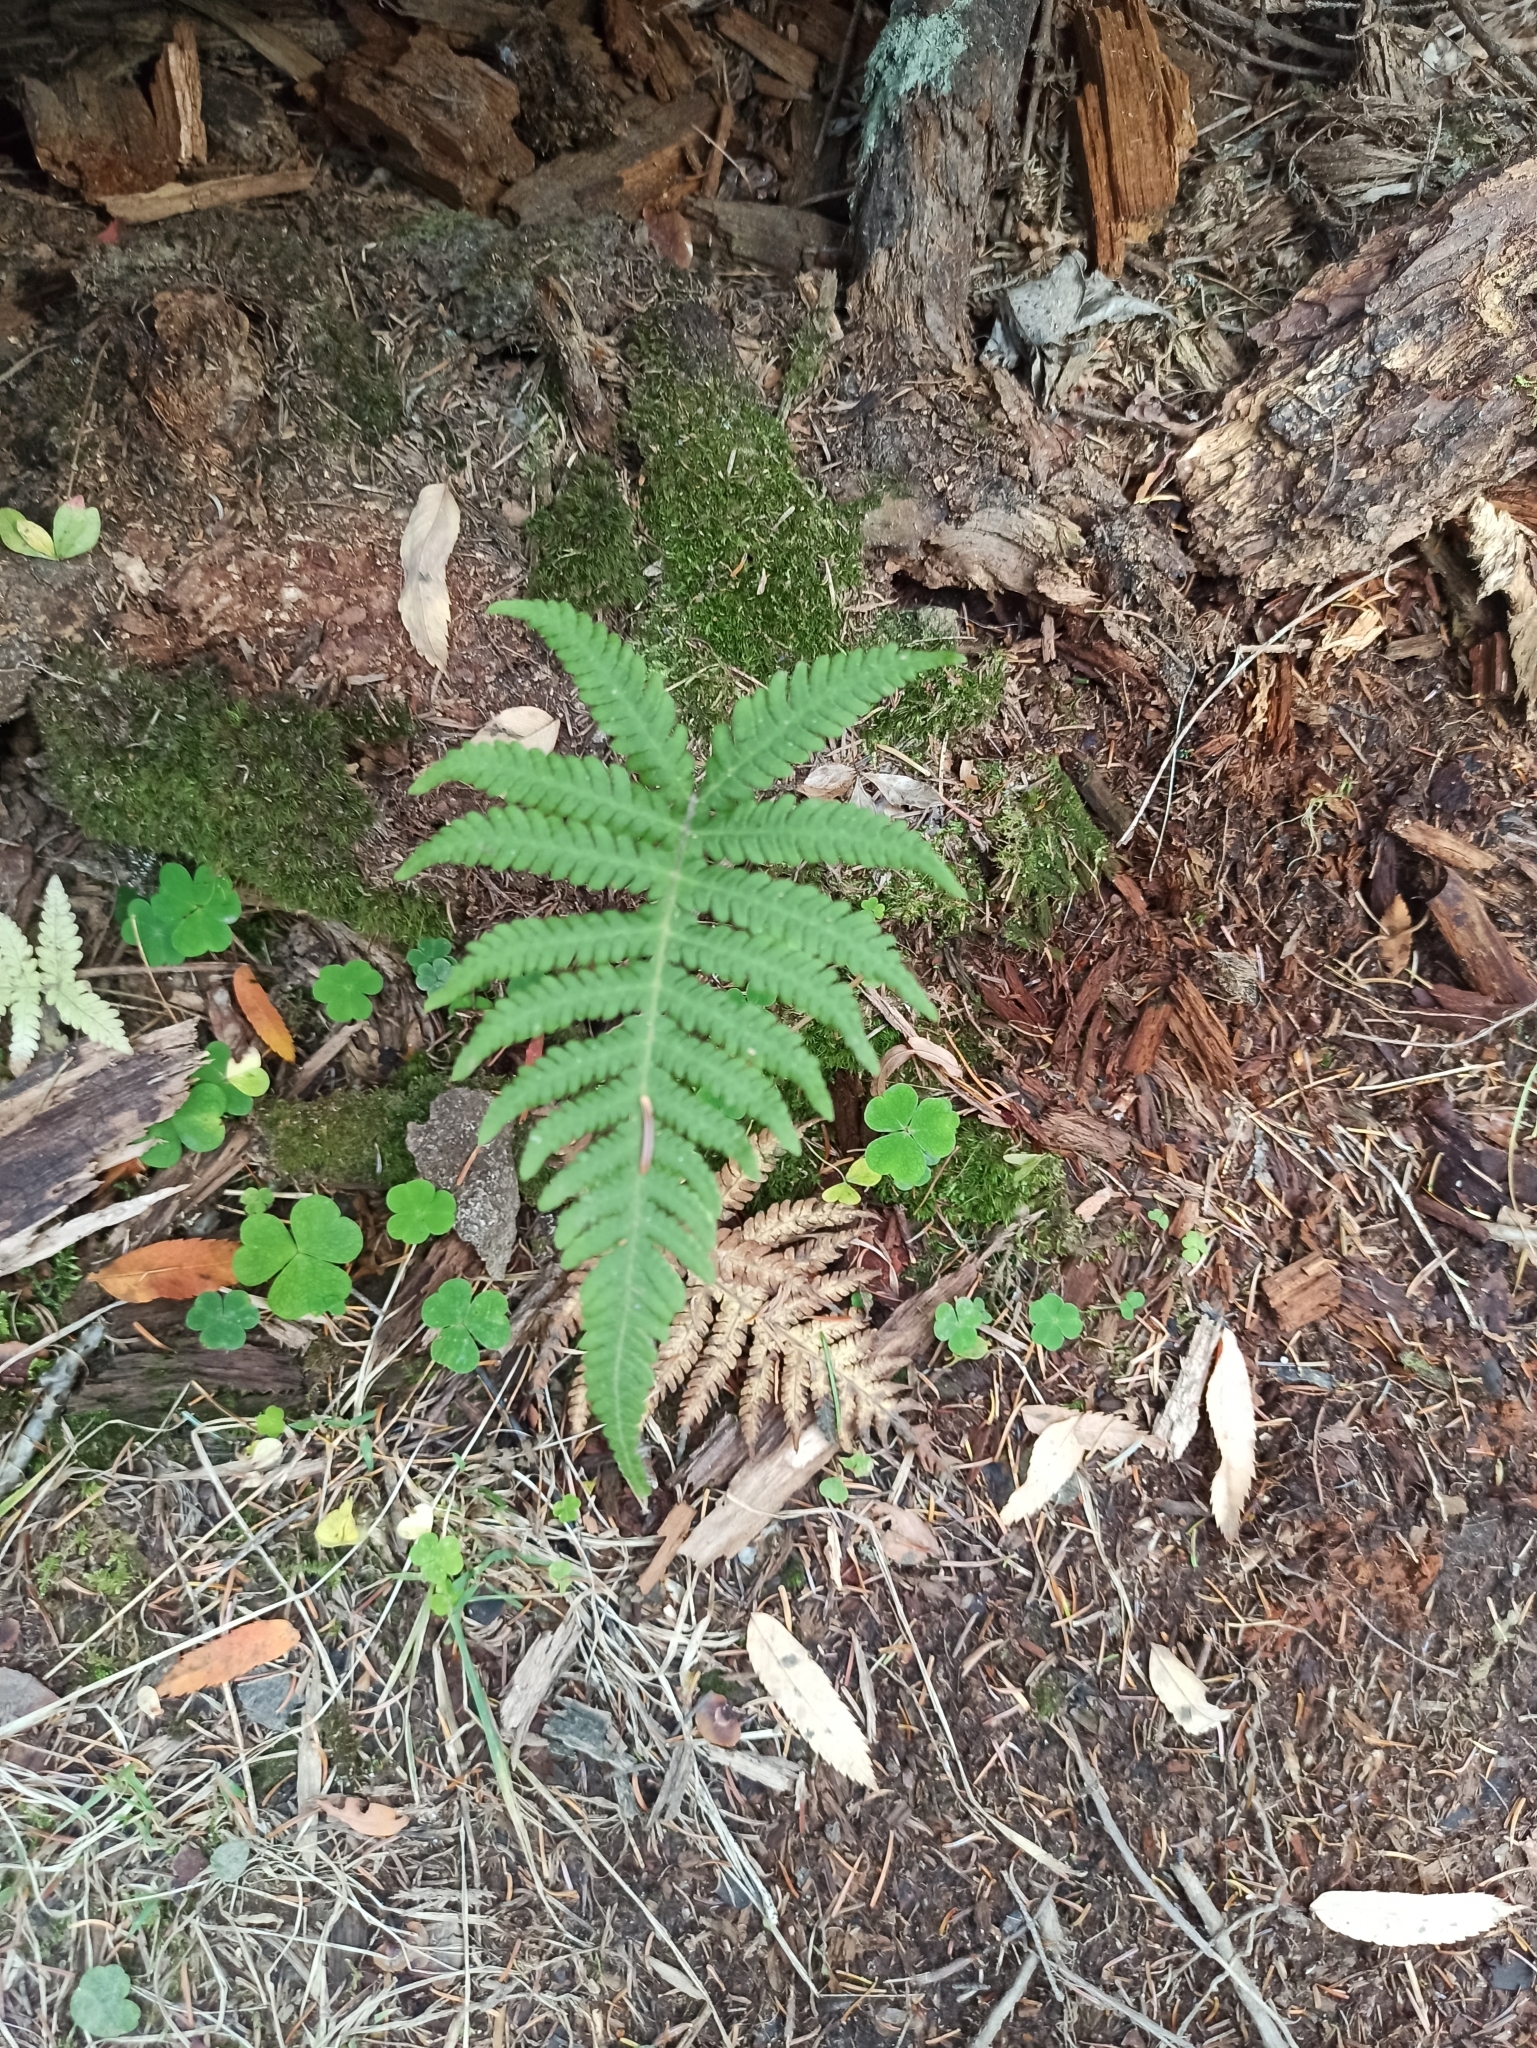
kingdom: Plantae
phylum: Tracheophyta
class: Polypodiopsida
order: Polypodiales
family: Thelypteridaceae
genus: Phegopteris
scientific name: Phegopteris connectilis
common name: Beech fern
